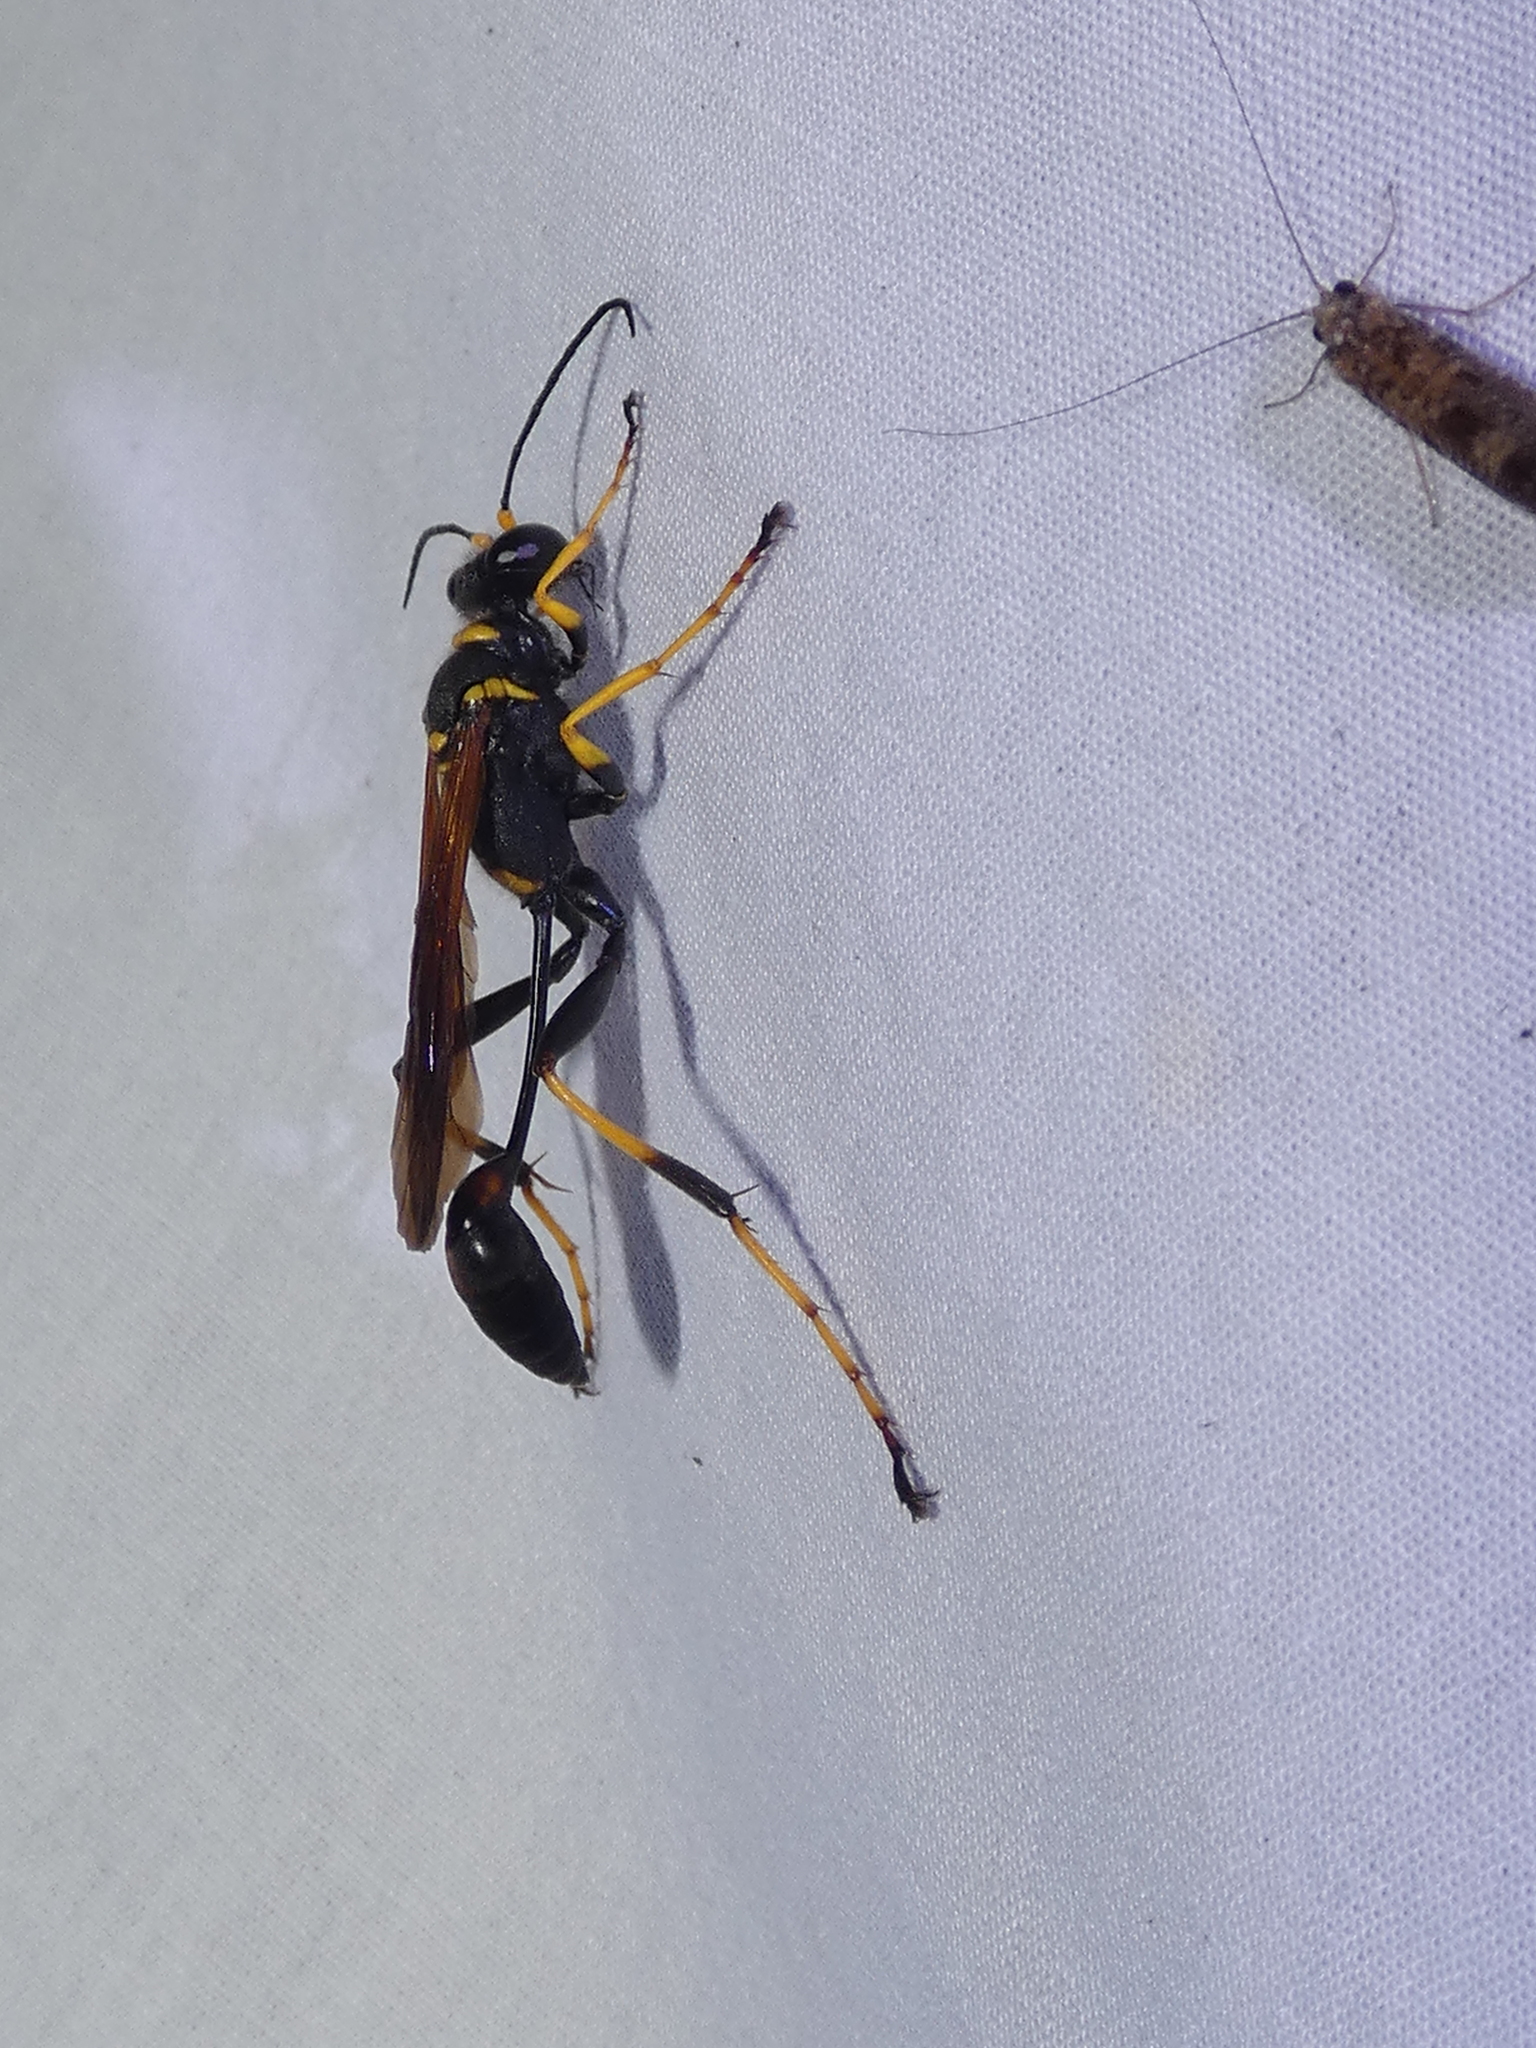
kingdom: Animalia
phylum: Arthropoda
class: Insecta
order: Hymenoptera
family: Sphecidae
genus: Sceliphron
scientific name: Sceliphron caementarium
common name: Mud dauber
